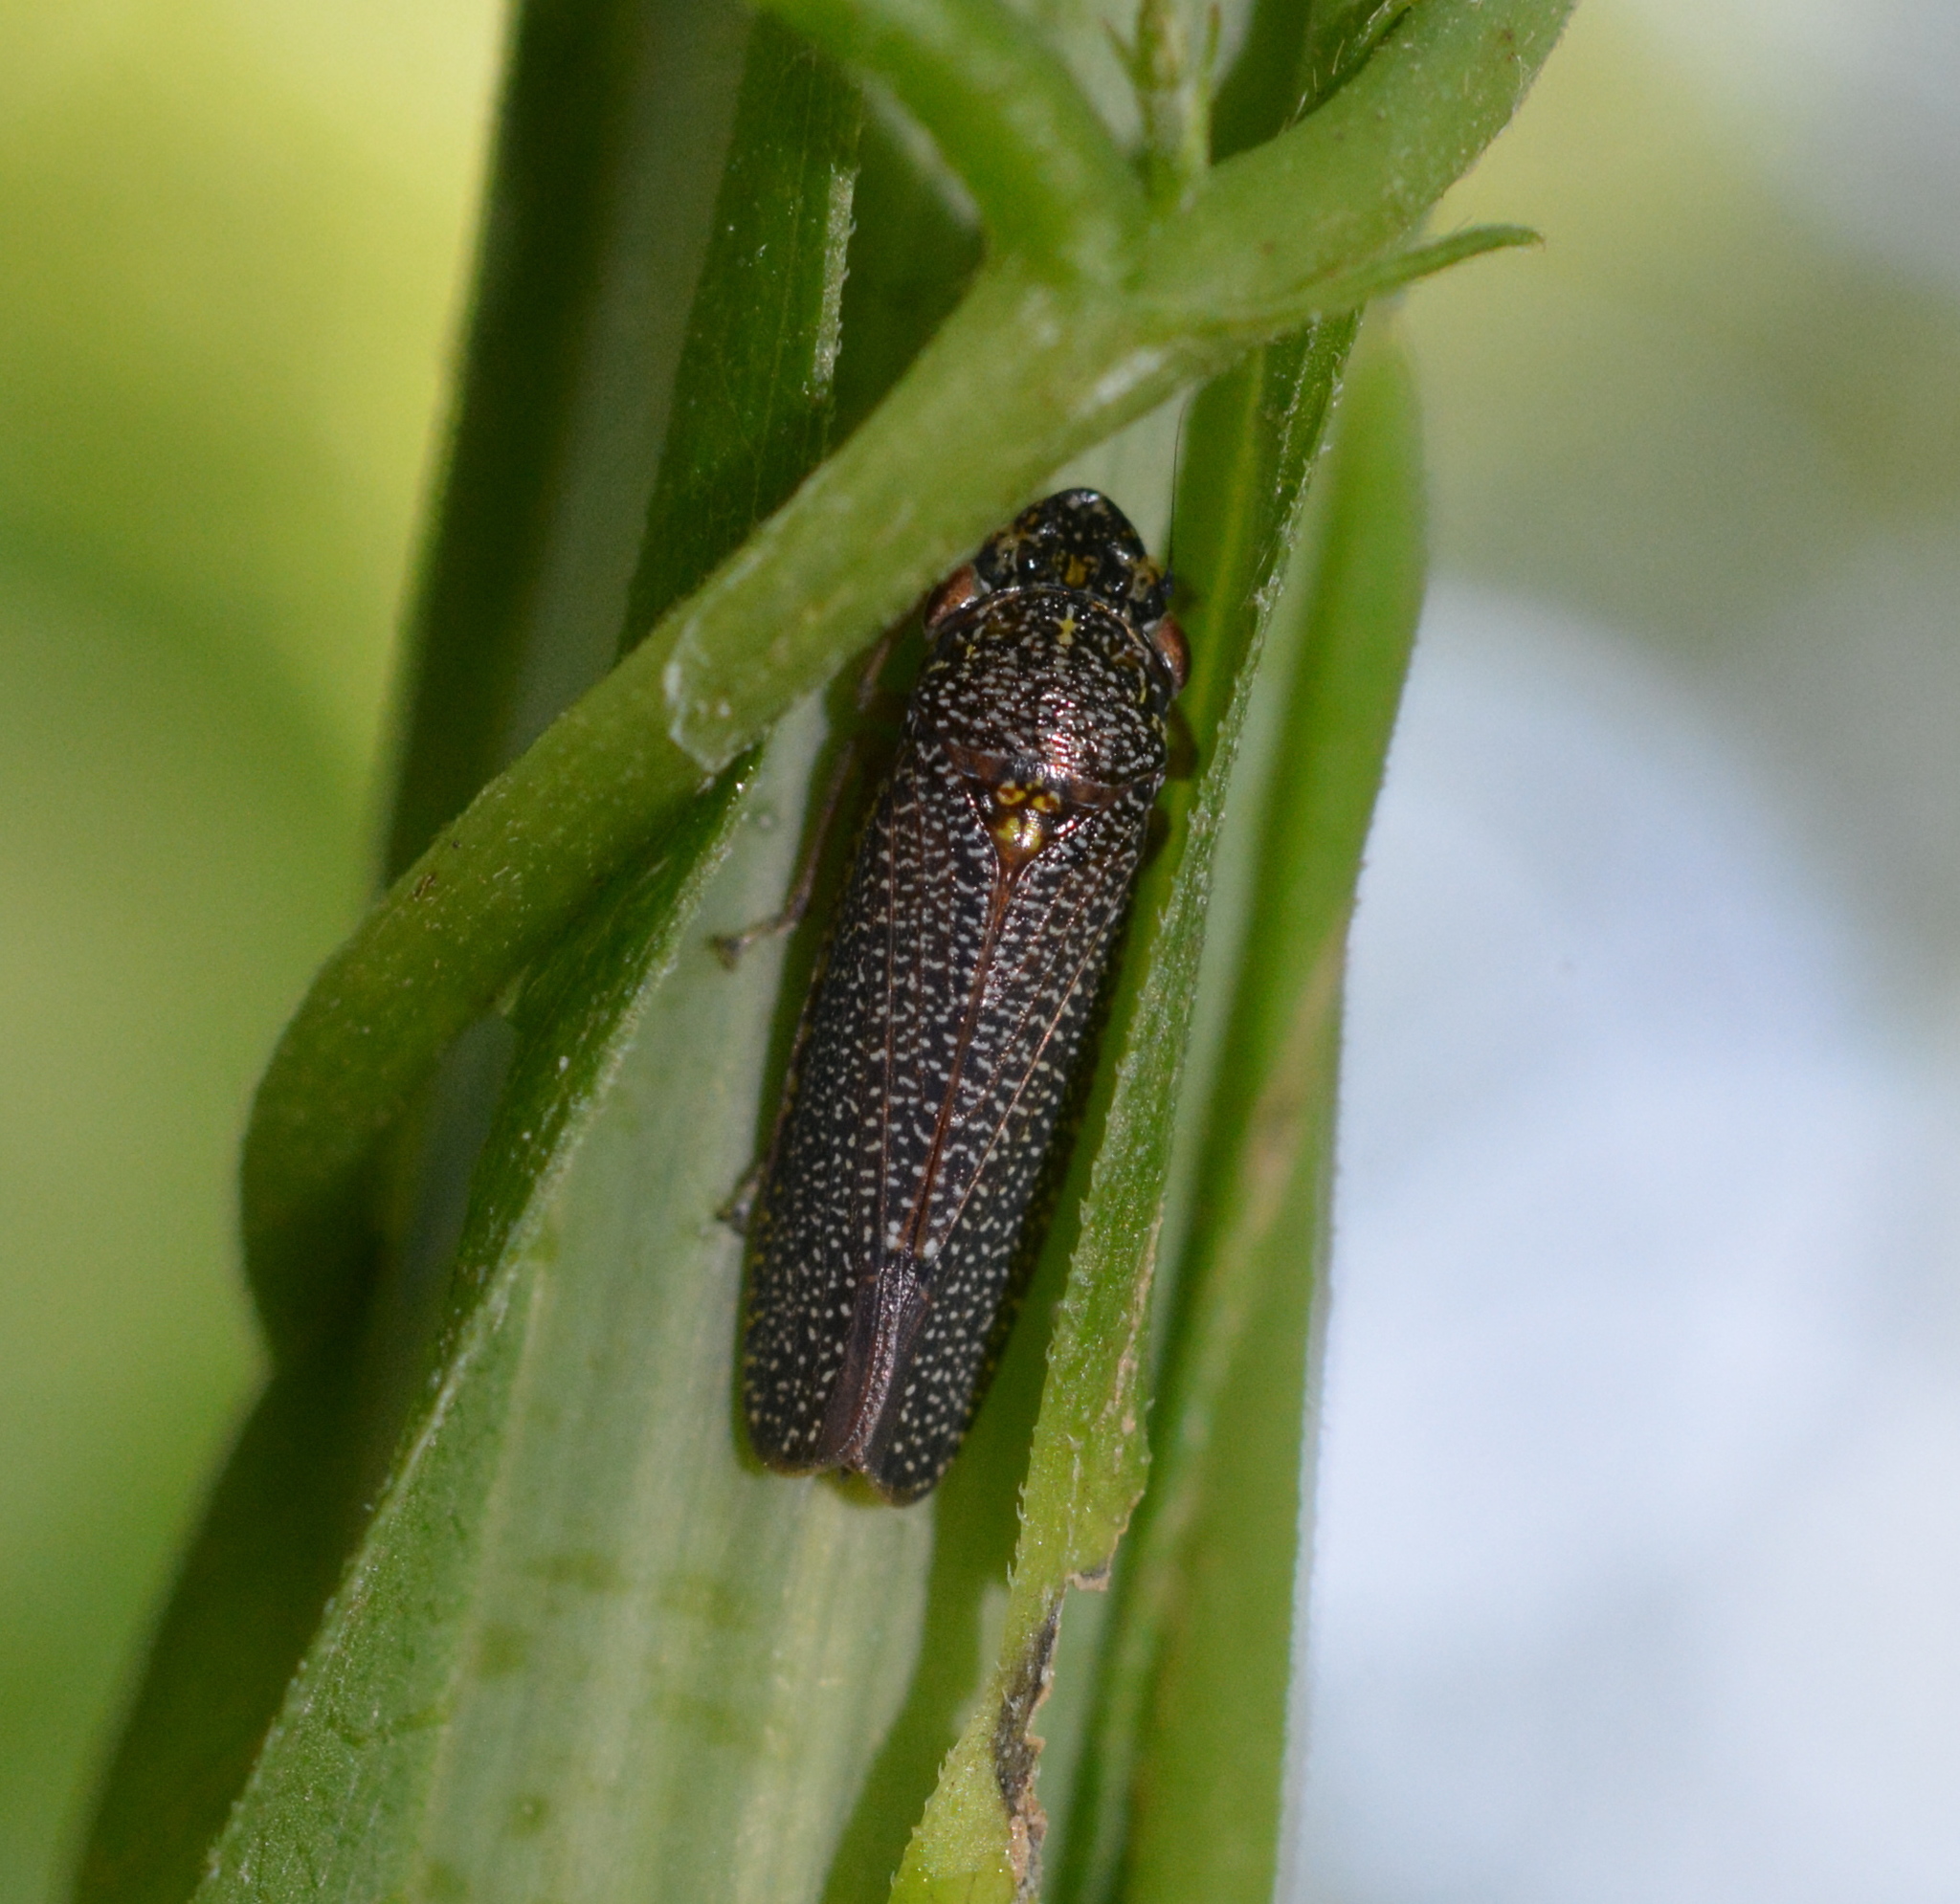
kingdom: Animalia
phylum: Arthropoda
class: Insecta
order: Hemiptera
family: Cicadellidae
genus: Paraulacizes
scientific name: Paraulacizes irrorata
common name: Speckled sharpshooter
